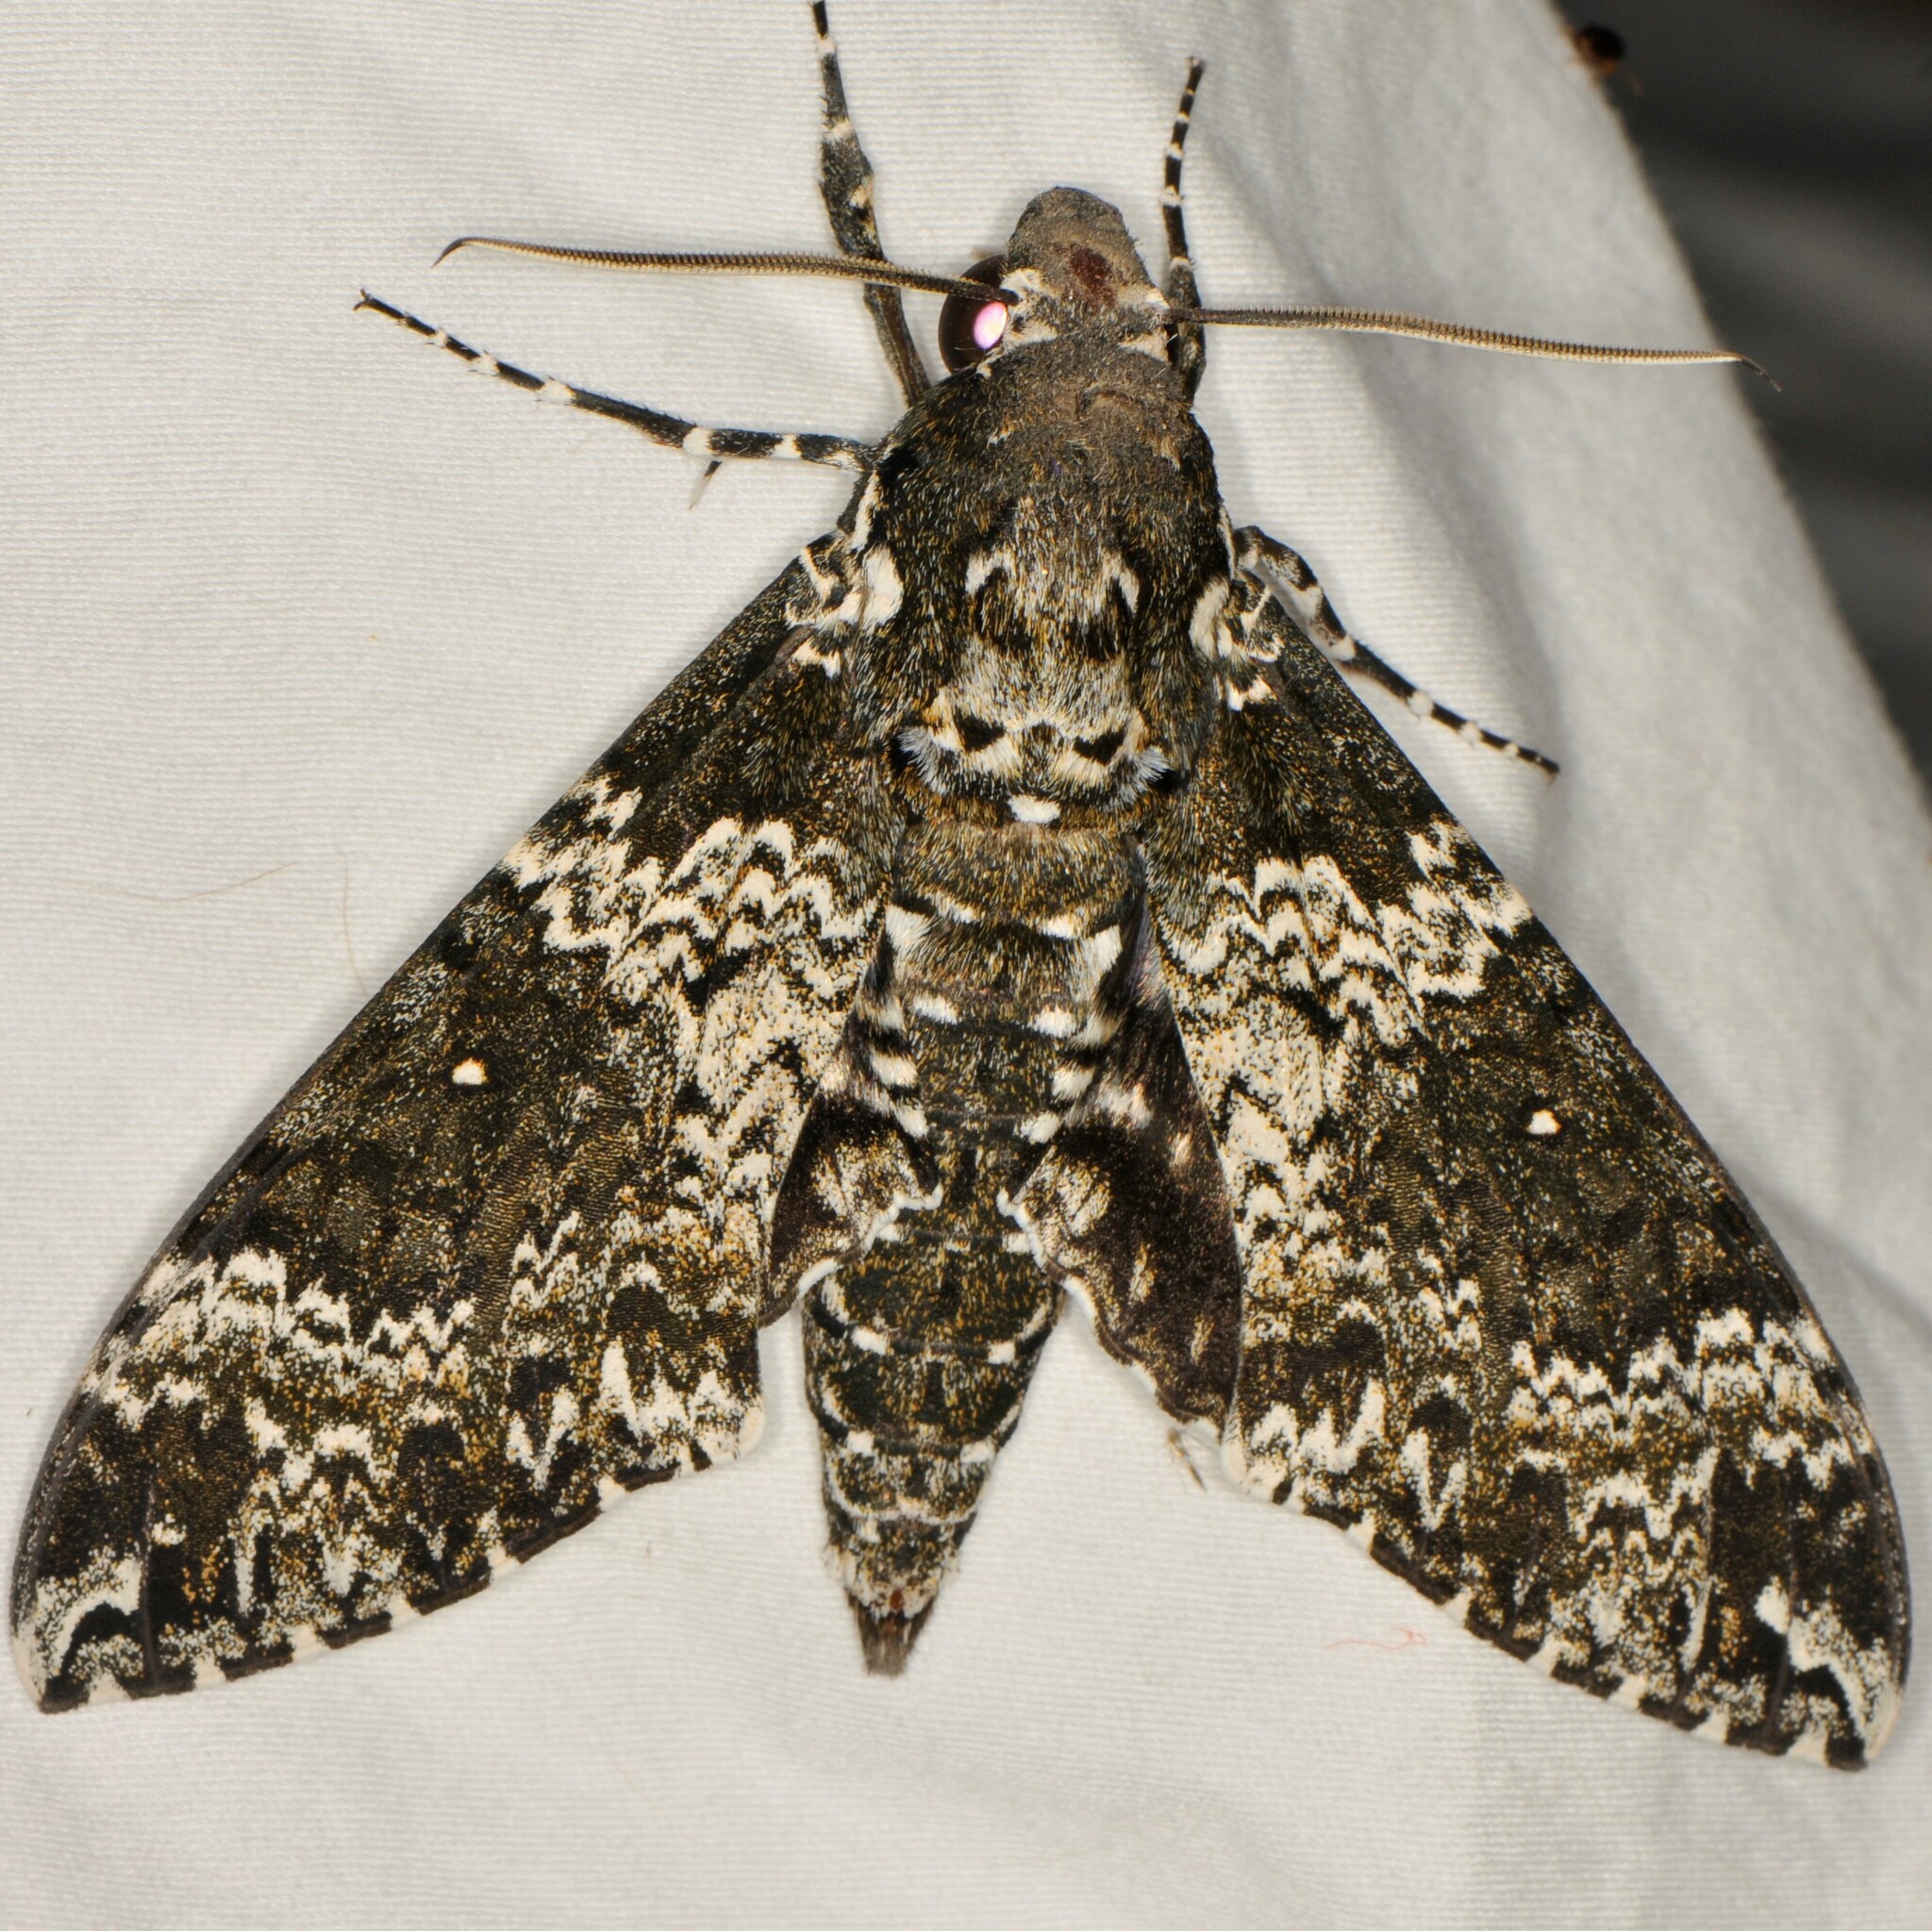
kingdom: Animalia
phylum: Arthropoda
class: Insecta
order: Lepidoptera
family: Sphingidae
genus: Manduca
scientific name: Manduca rustica
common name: Rustic sphinx
